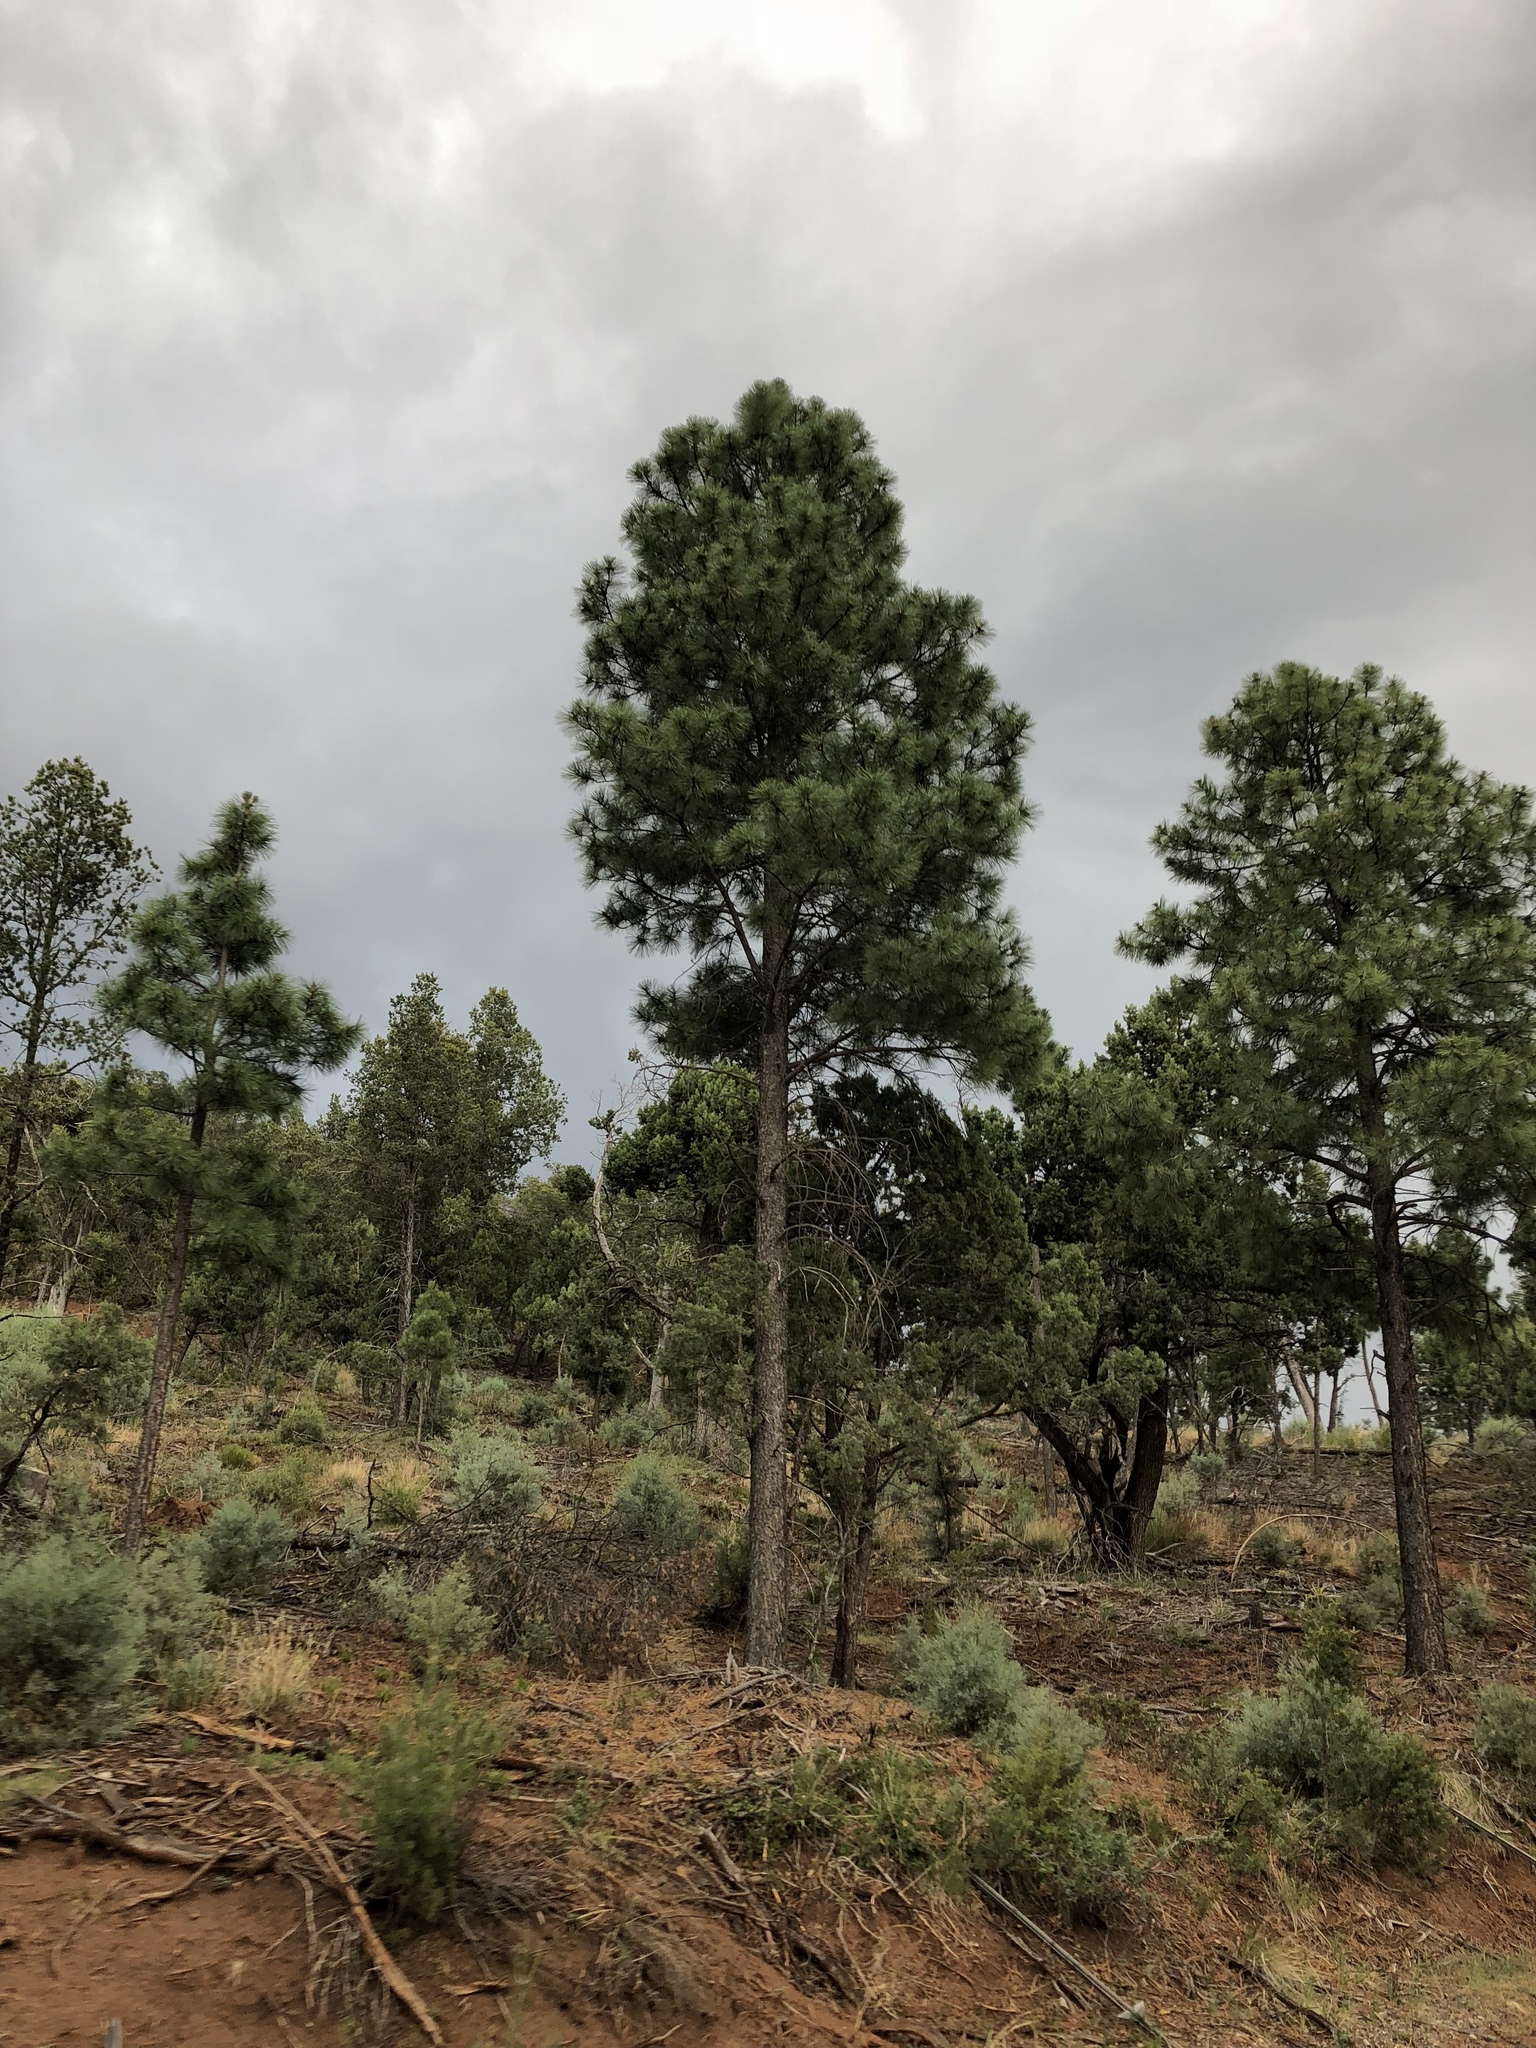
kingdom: Plantae
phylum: Tracheophyta
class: Pinopsida
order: Pinales
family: Pinaceae
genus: Pinus
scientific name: Pinus ponderosa
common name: Western yellow-pine
